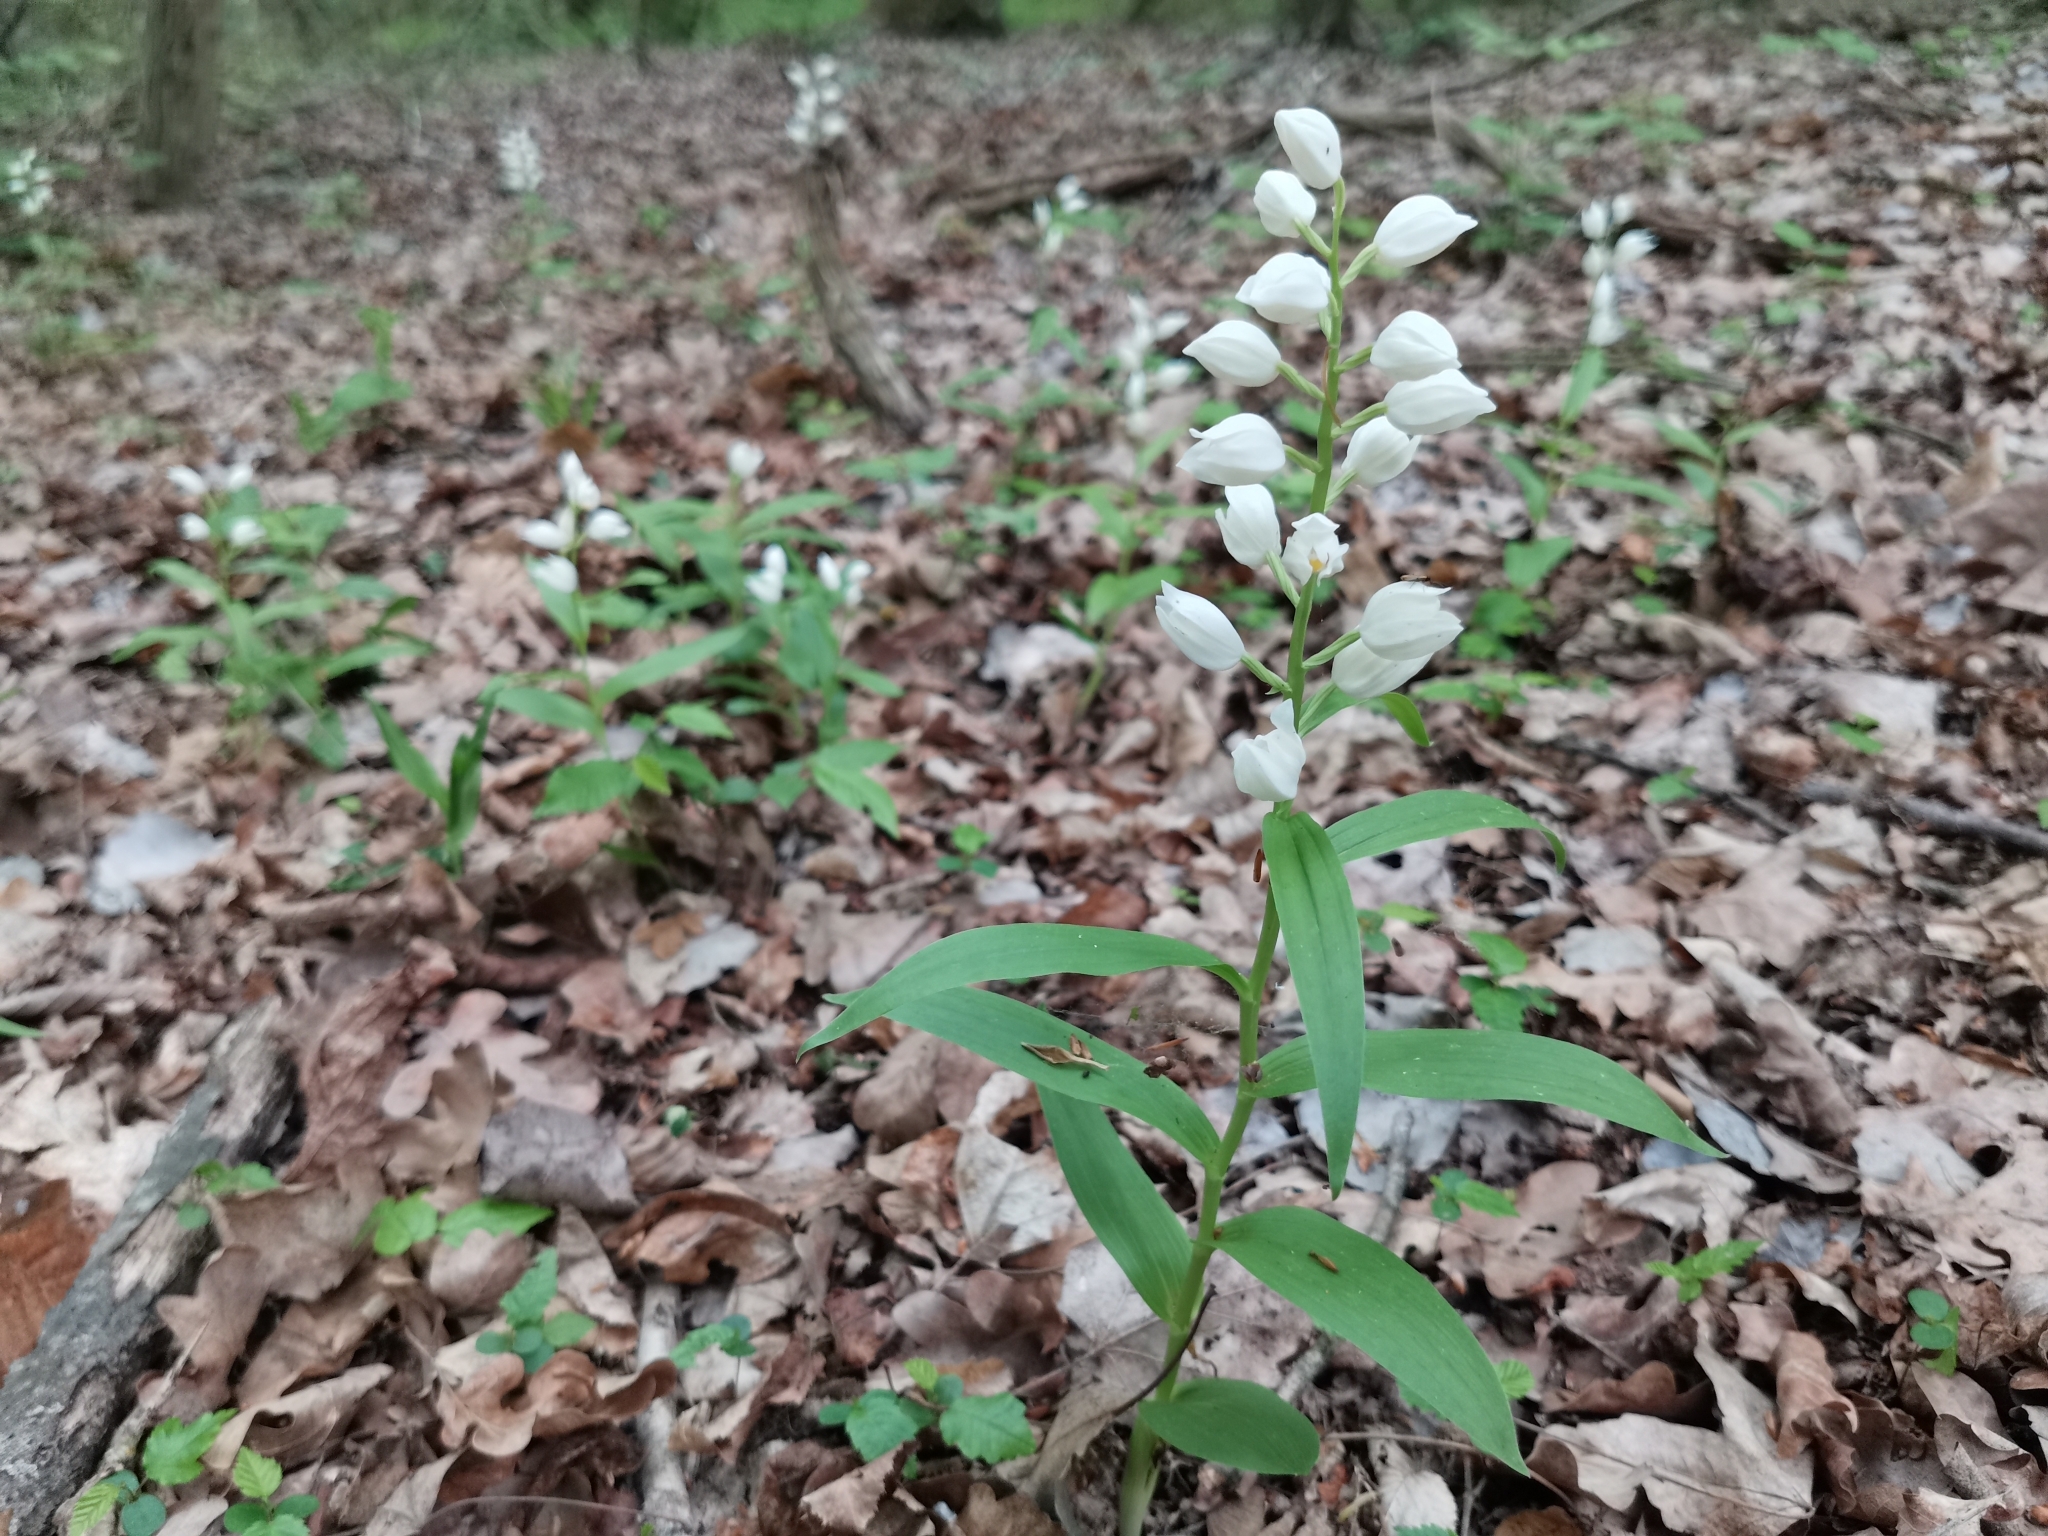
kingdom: Plantae
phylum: Tracheophyta
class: Liliopsida
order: Asparagales
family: Orchidaceae
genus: Cephalanthera
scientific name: Cephalanthera longifolia
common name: Narrow-leaved helleborine
